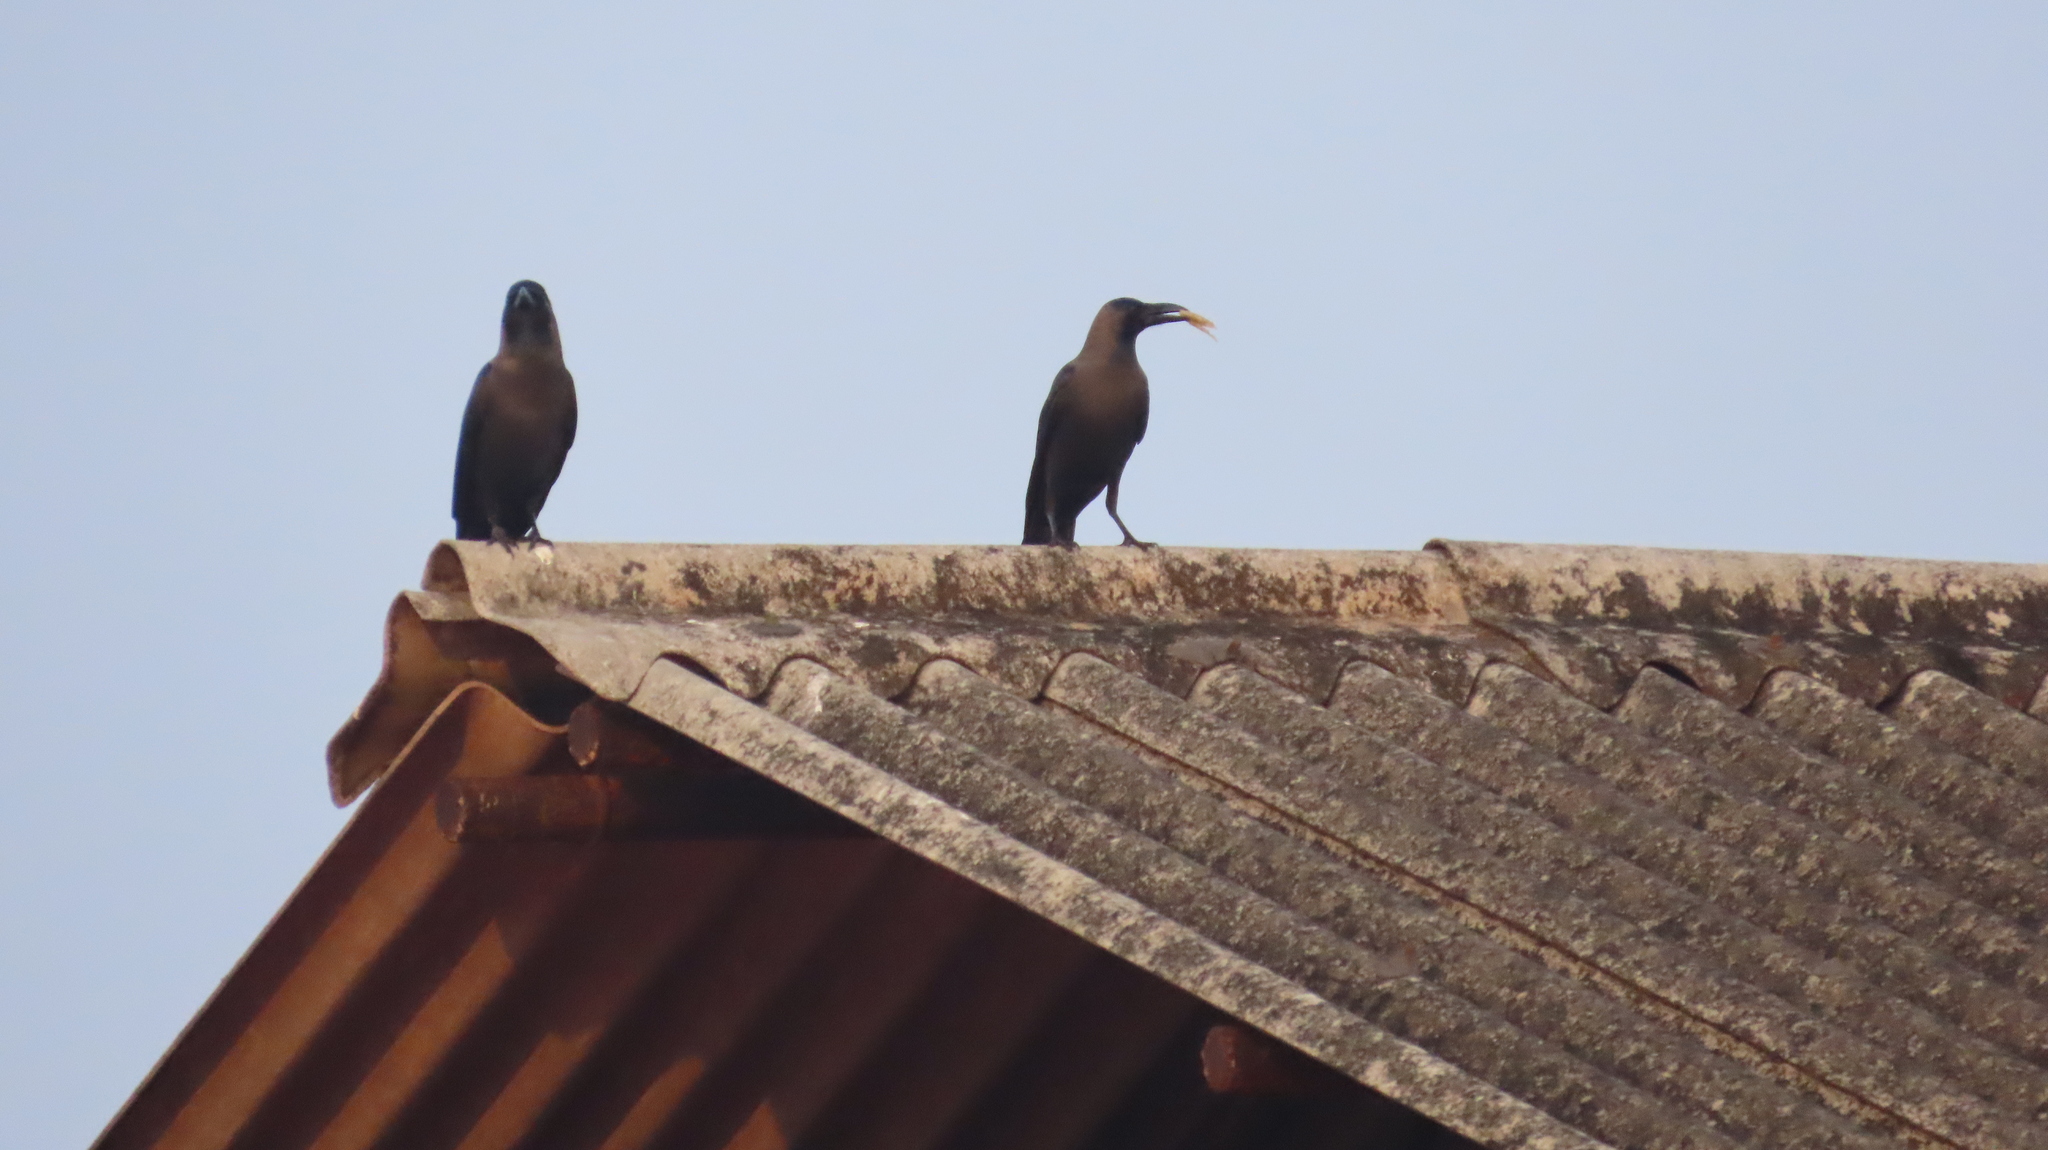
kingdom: Animalia
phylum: Chordata
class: Aves
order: Passeriformes
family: Corvidae
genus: Corvus
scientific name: Corvus splendens
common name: House crow
